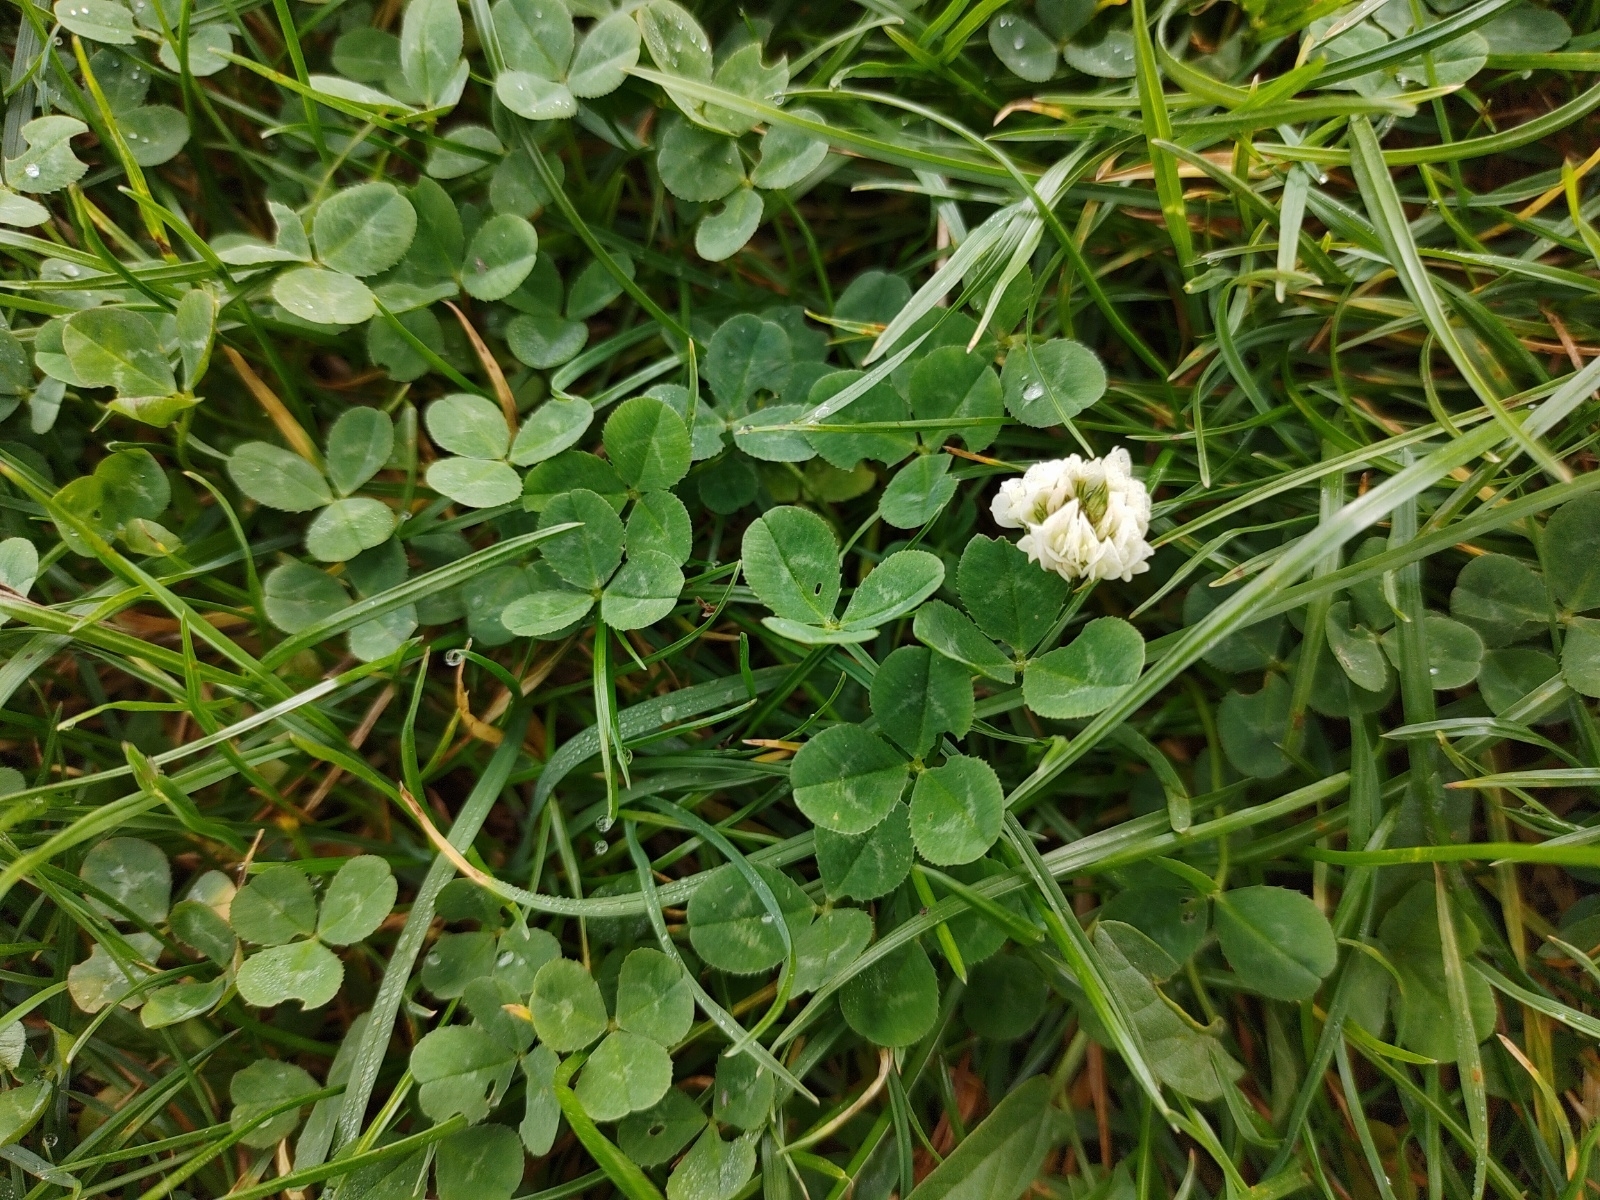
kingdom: Plantae
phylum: Tracheophyta
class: Magnoliopsida
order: Fabales
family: Fabaceae
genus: Trifolium
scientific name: Trifolium repens
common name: White clover
